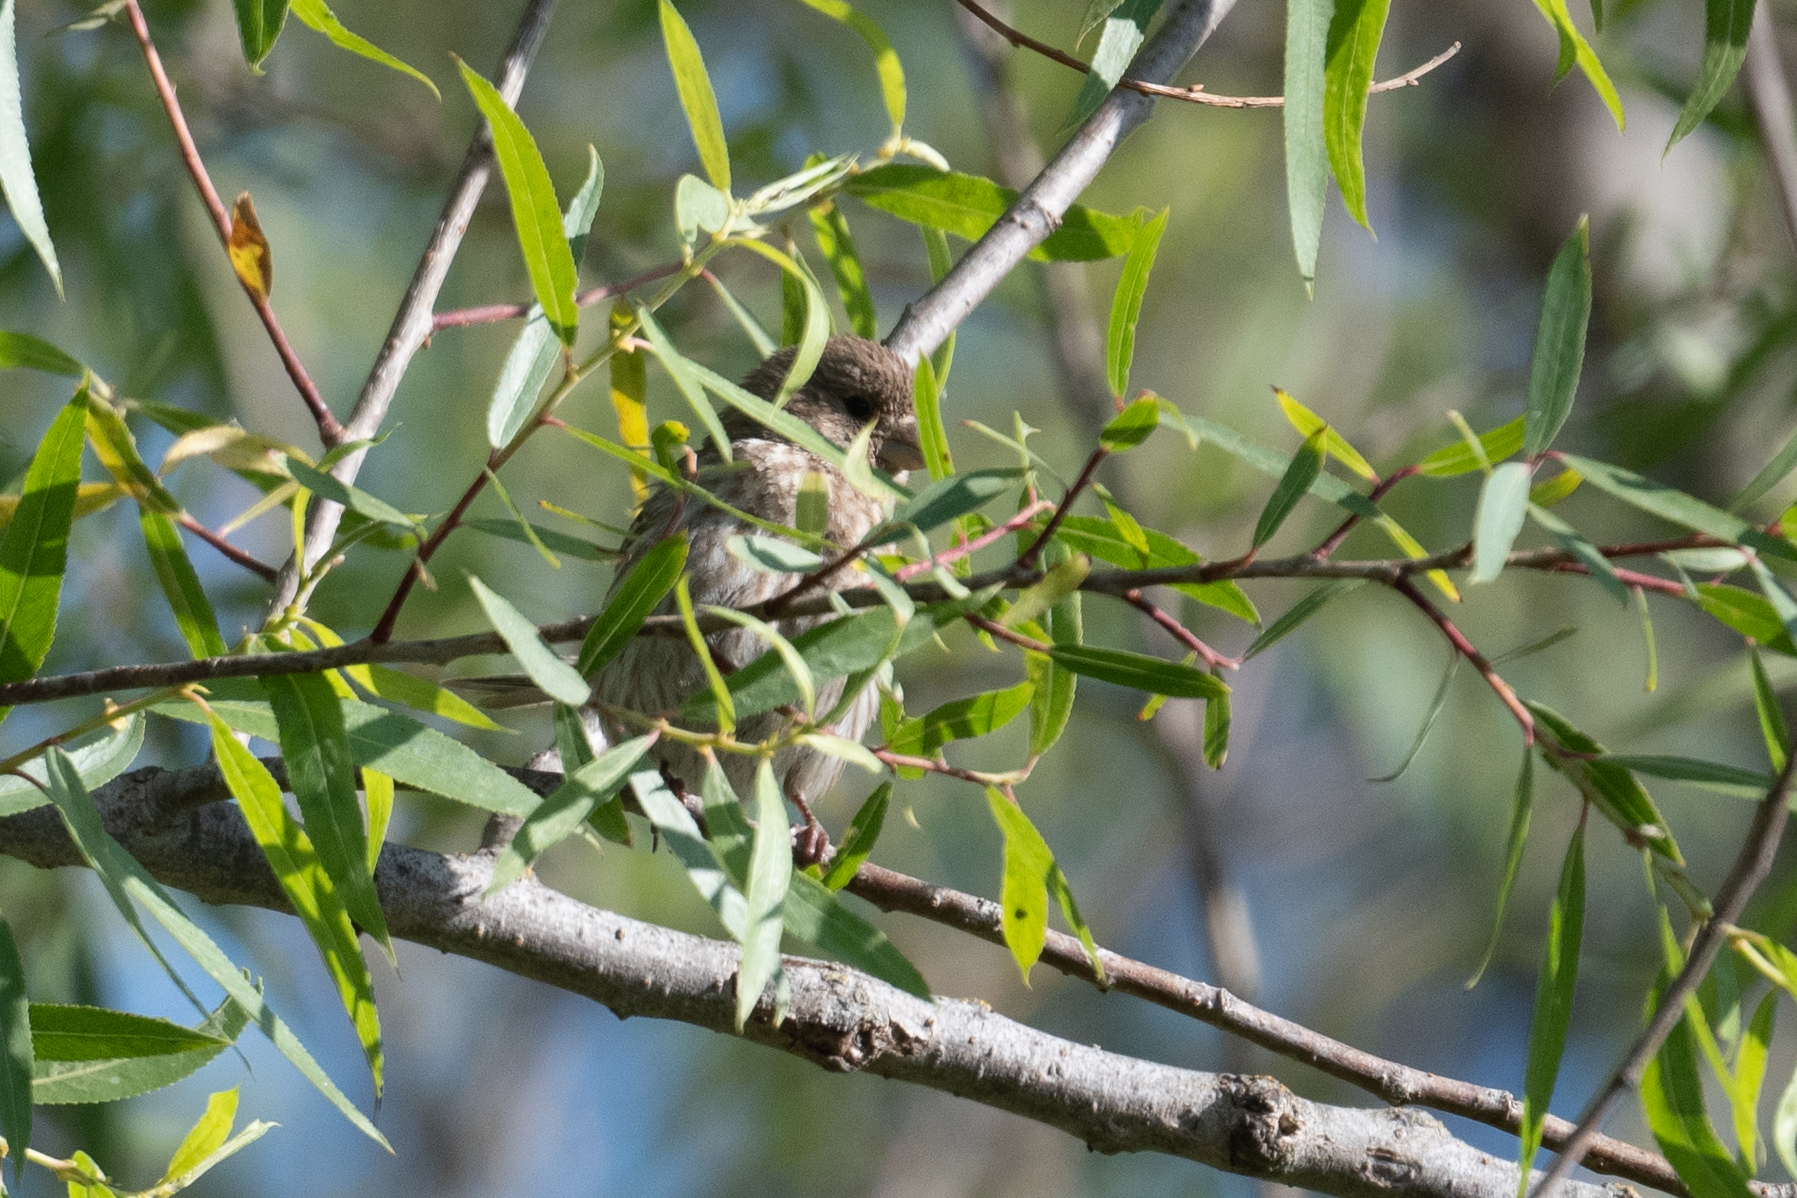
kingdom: Animalia
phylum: Chordata
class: Aves
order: Passeriformes
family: Fringillidae
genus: Haemorhous
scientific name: Haemorhous mexicanus
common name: House finch
